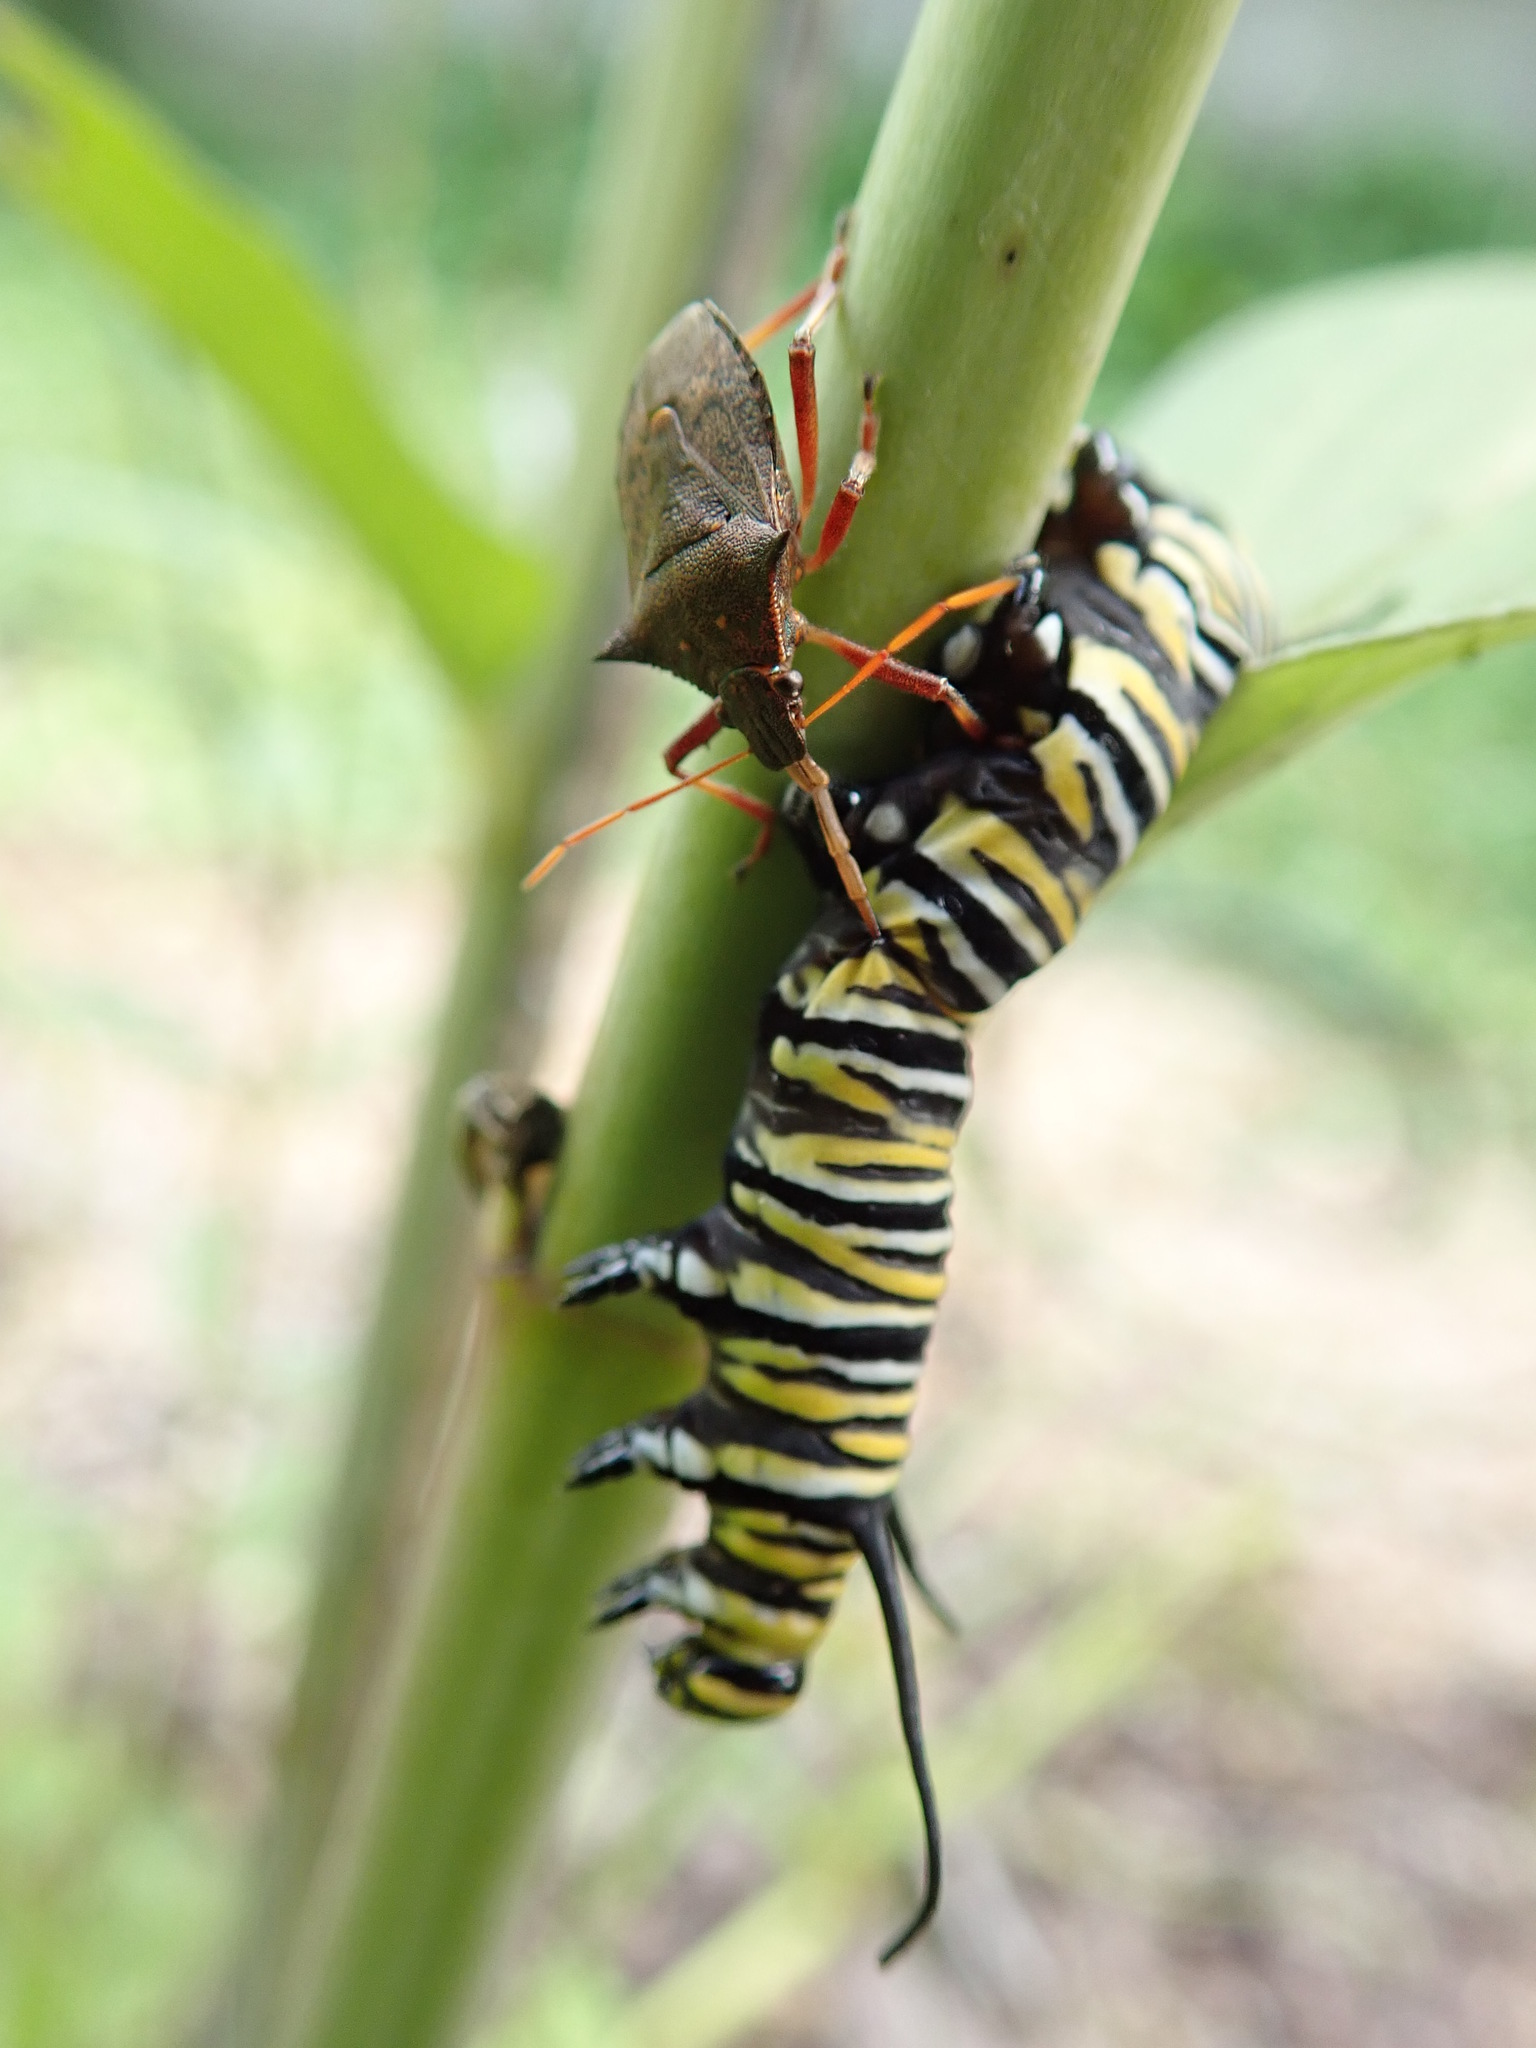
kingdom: Animalia
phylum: Arthropoda
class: Insecta
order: Hemiptera
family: Pentatomidae
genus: Picromerus
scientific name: Picromerus bidens
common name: Spiked shieldbug
